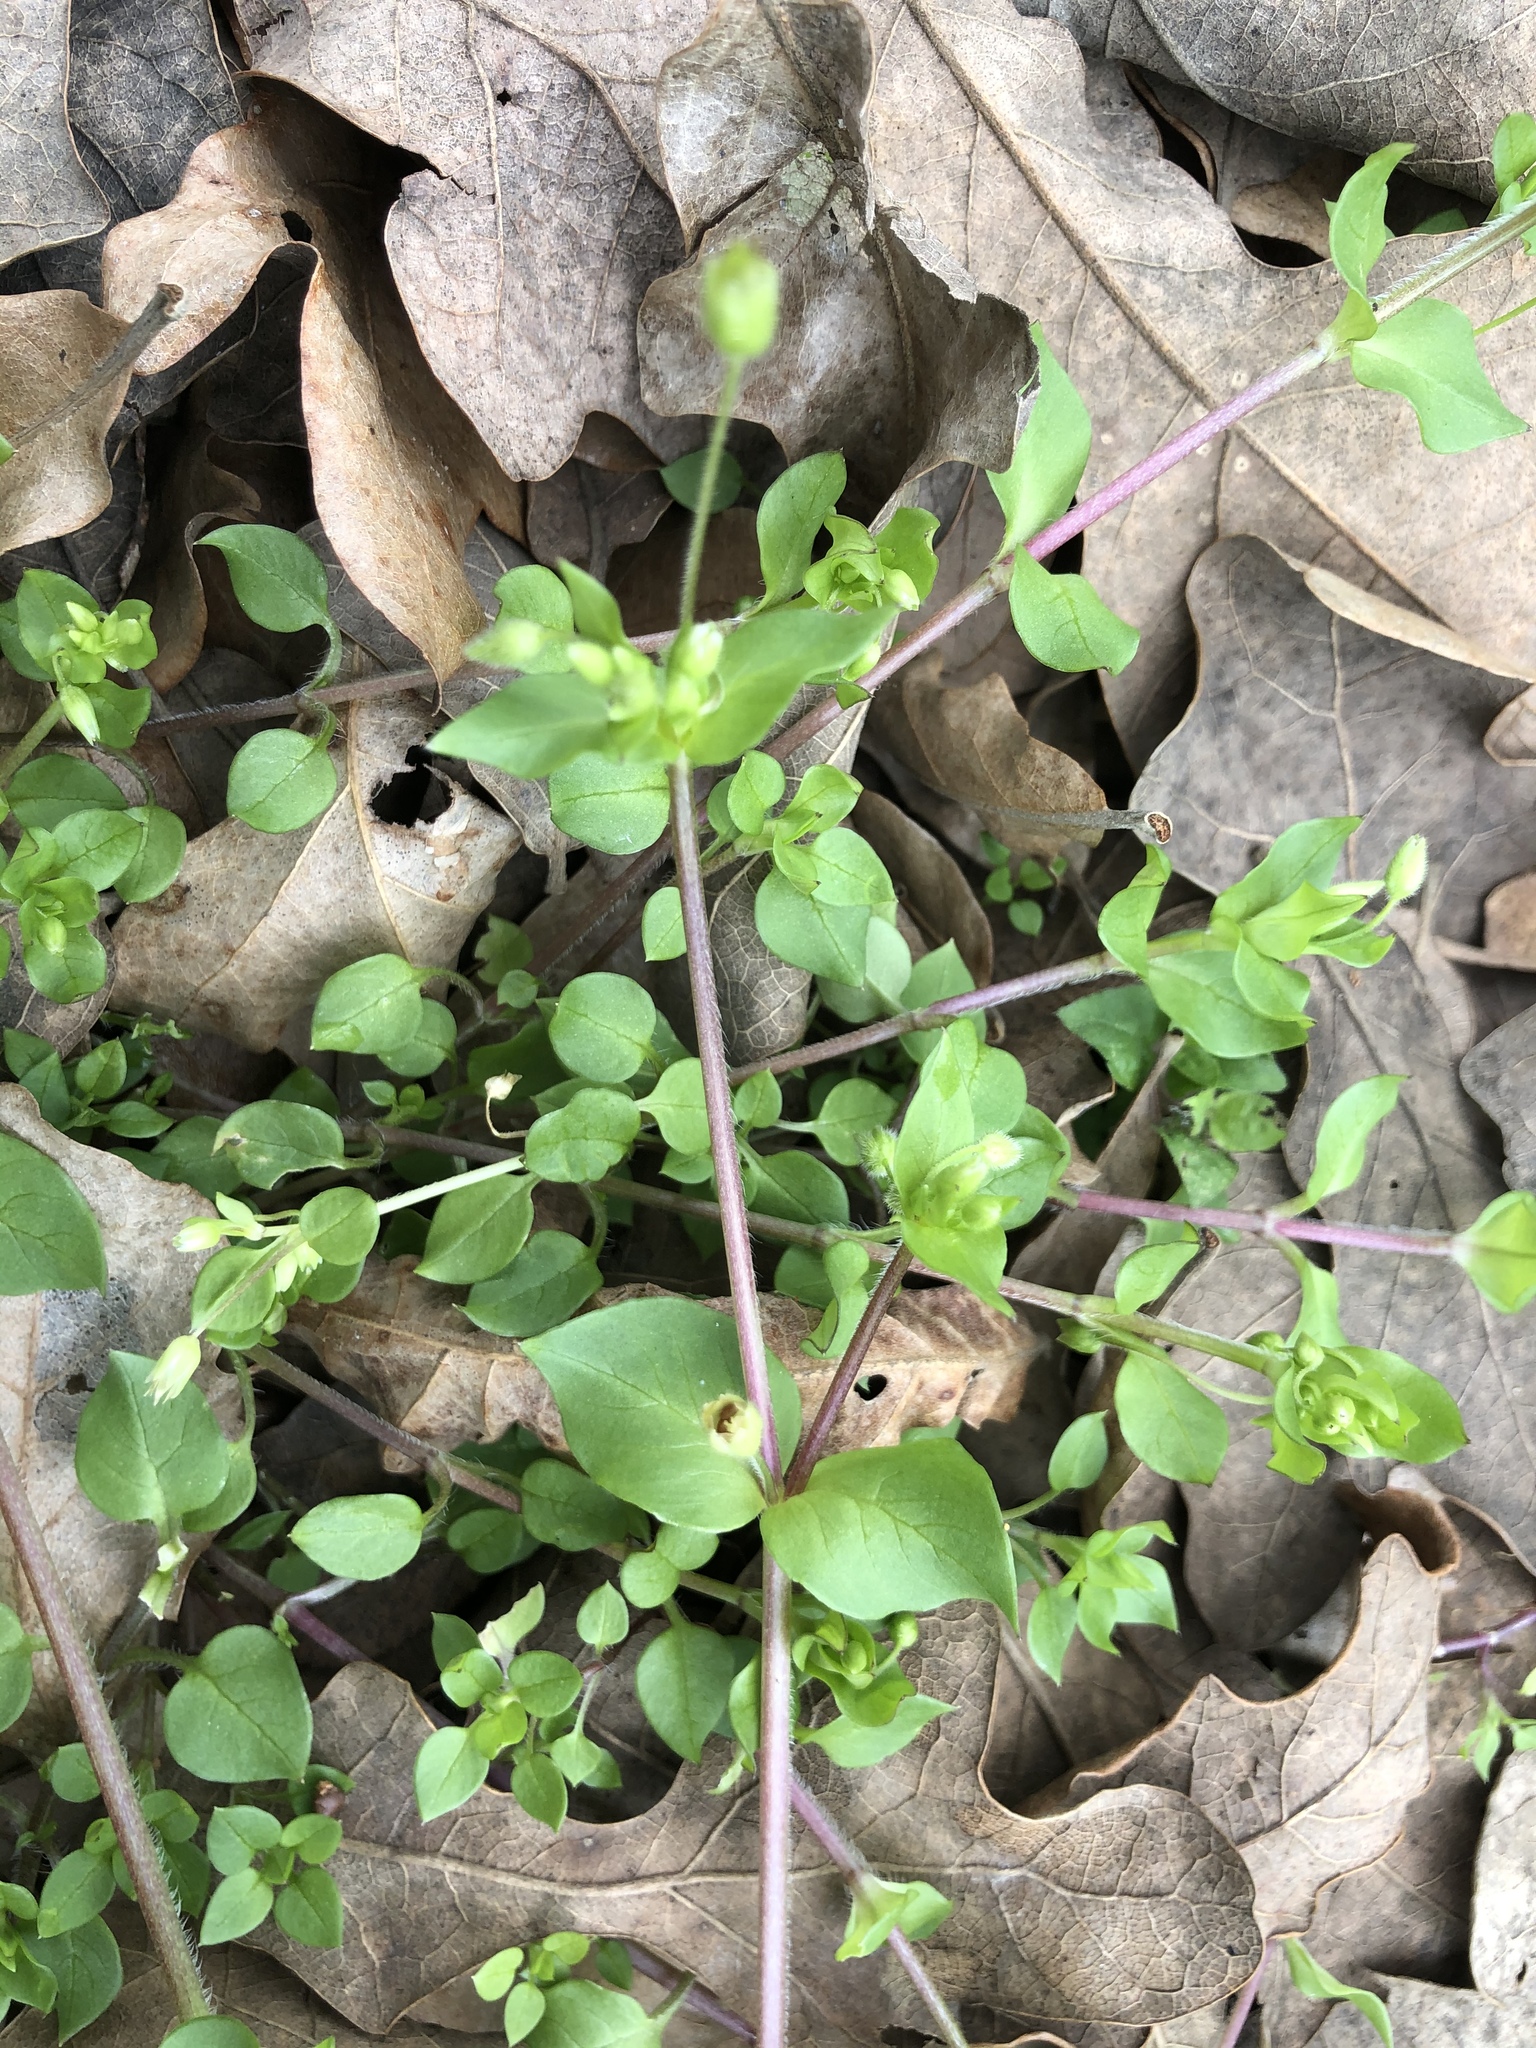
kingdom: Plantae
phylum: Tracheophyta
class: Magnoliopsida
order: Caryophyllales
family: Caryophyllaceae
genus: Stellaria
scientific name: Stellaria media
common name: Common chickweed
